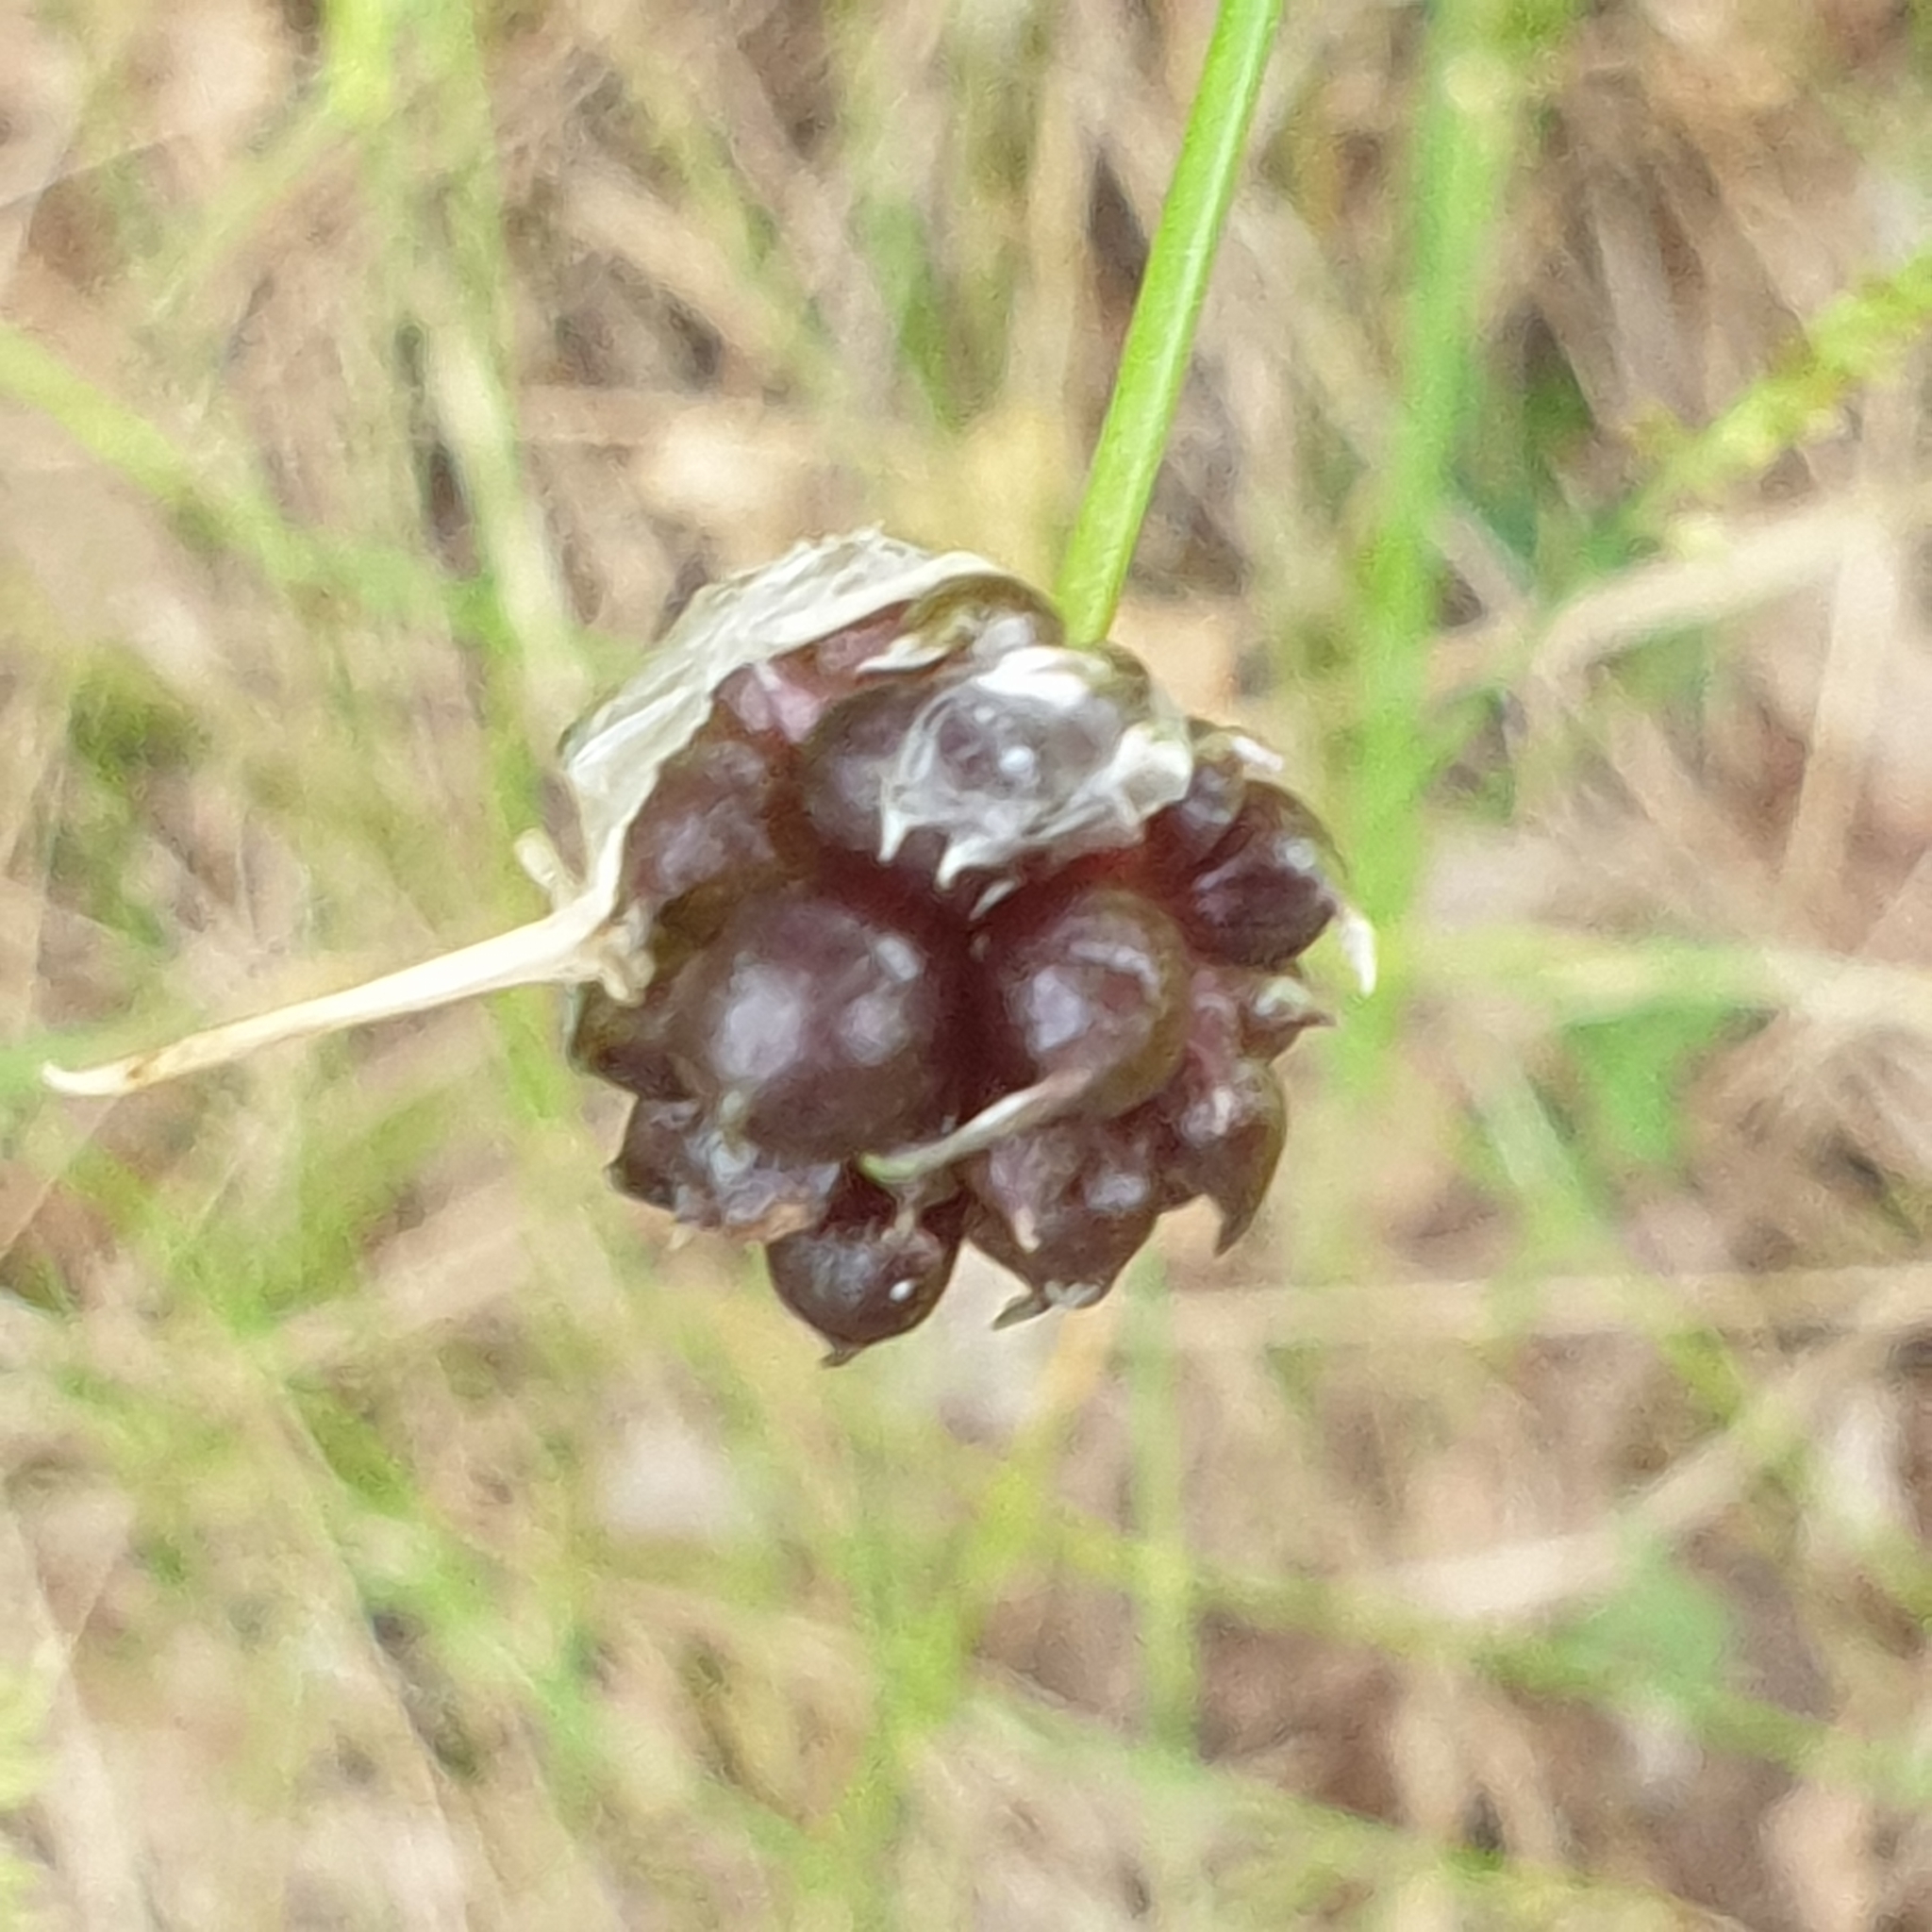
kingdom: Plantae
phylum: Tracheophyta
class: Liliopsida
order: Asparagales
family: Amaryllidaceae
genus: Allium
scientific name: Allium vineale
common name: Crow garlic
